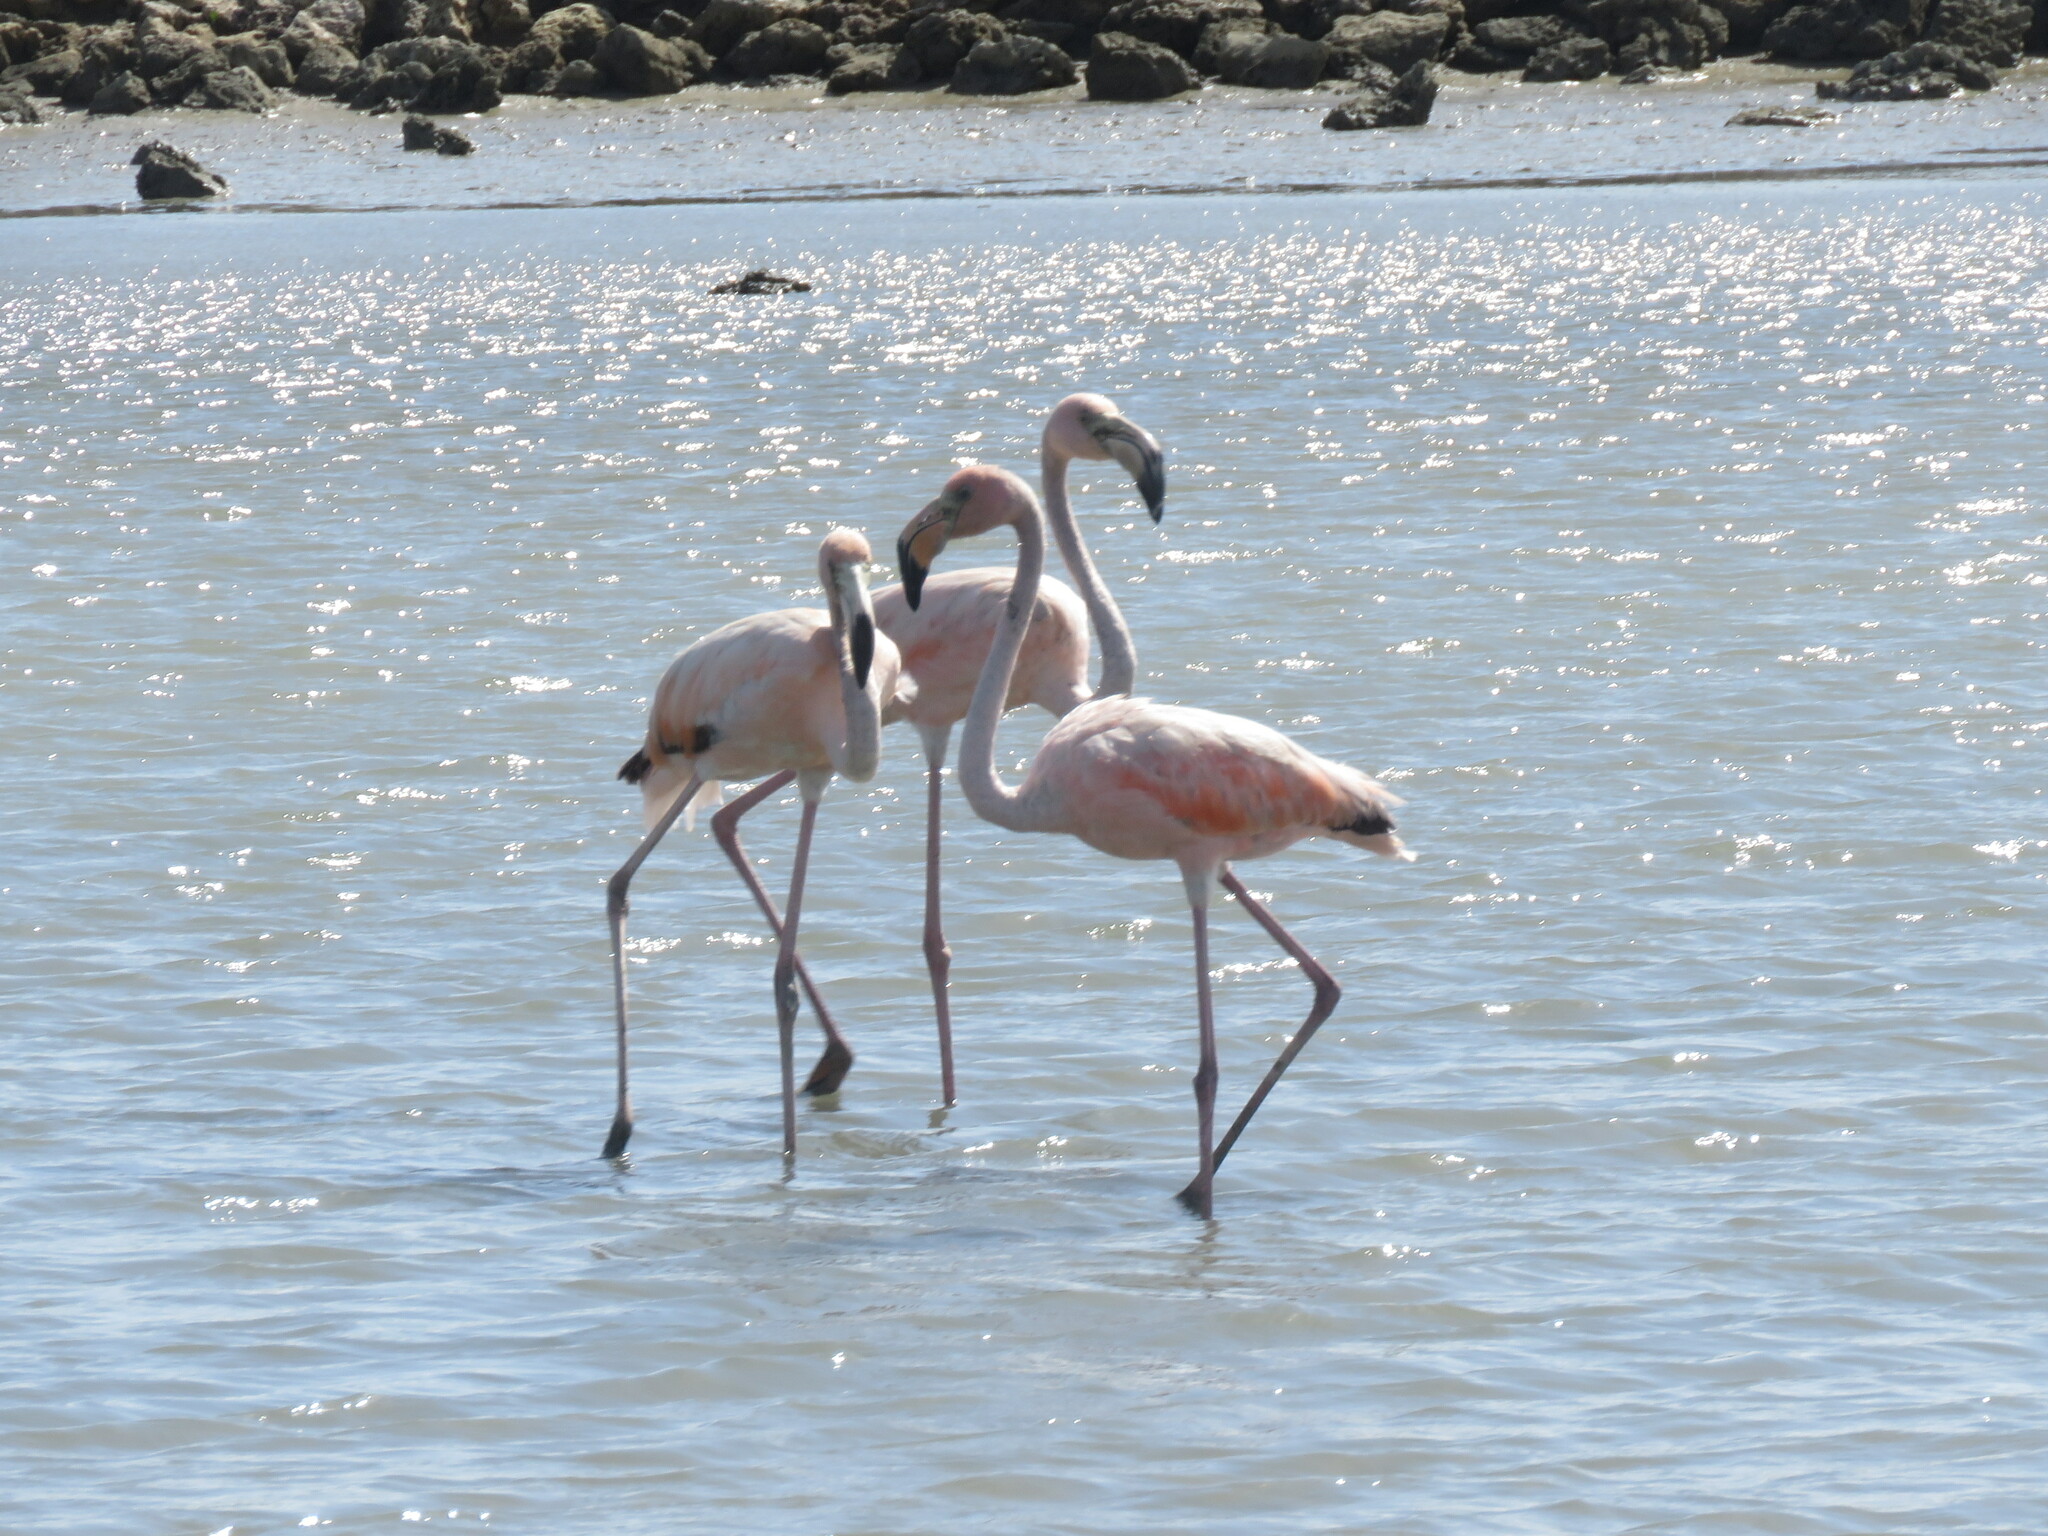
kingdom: Animalia
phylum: Chordata
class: Aves
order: Phoenicopteriformes
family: Phoenicopteridae
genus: Phoenicopterus
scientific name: Phoenicopterus ruber
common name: American flamingo
